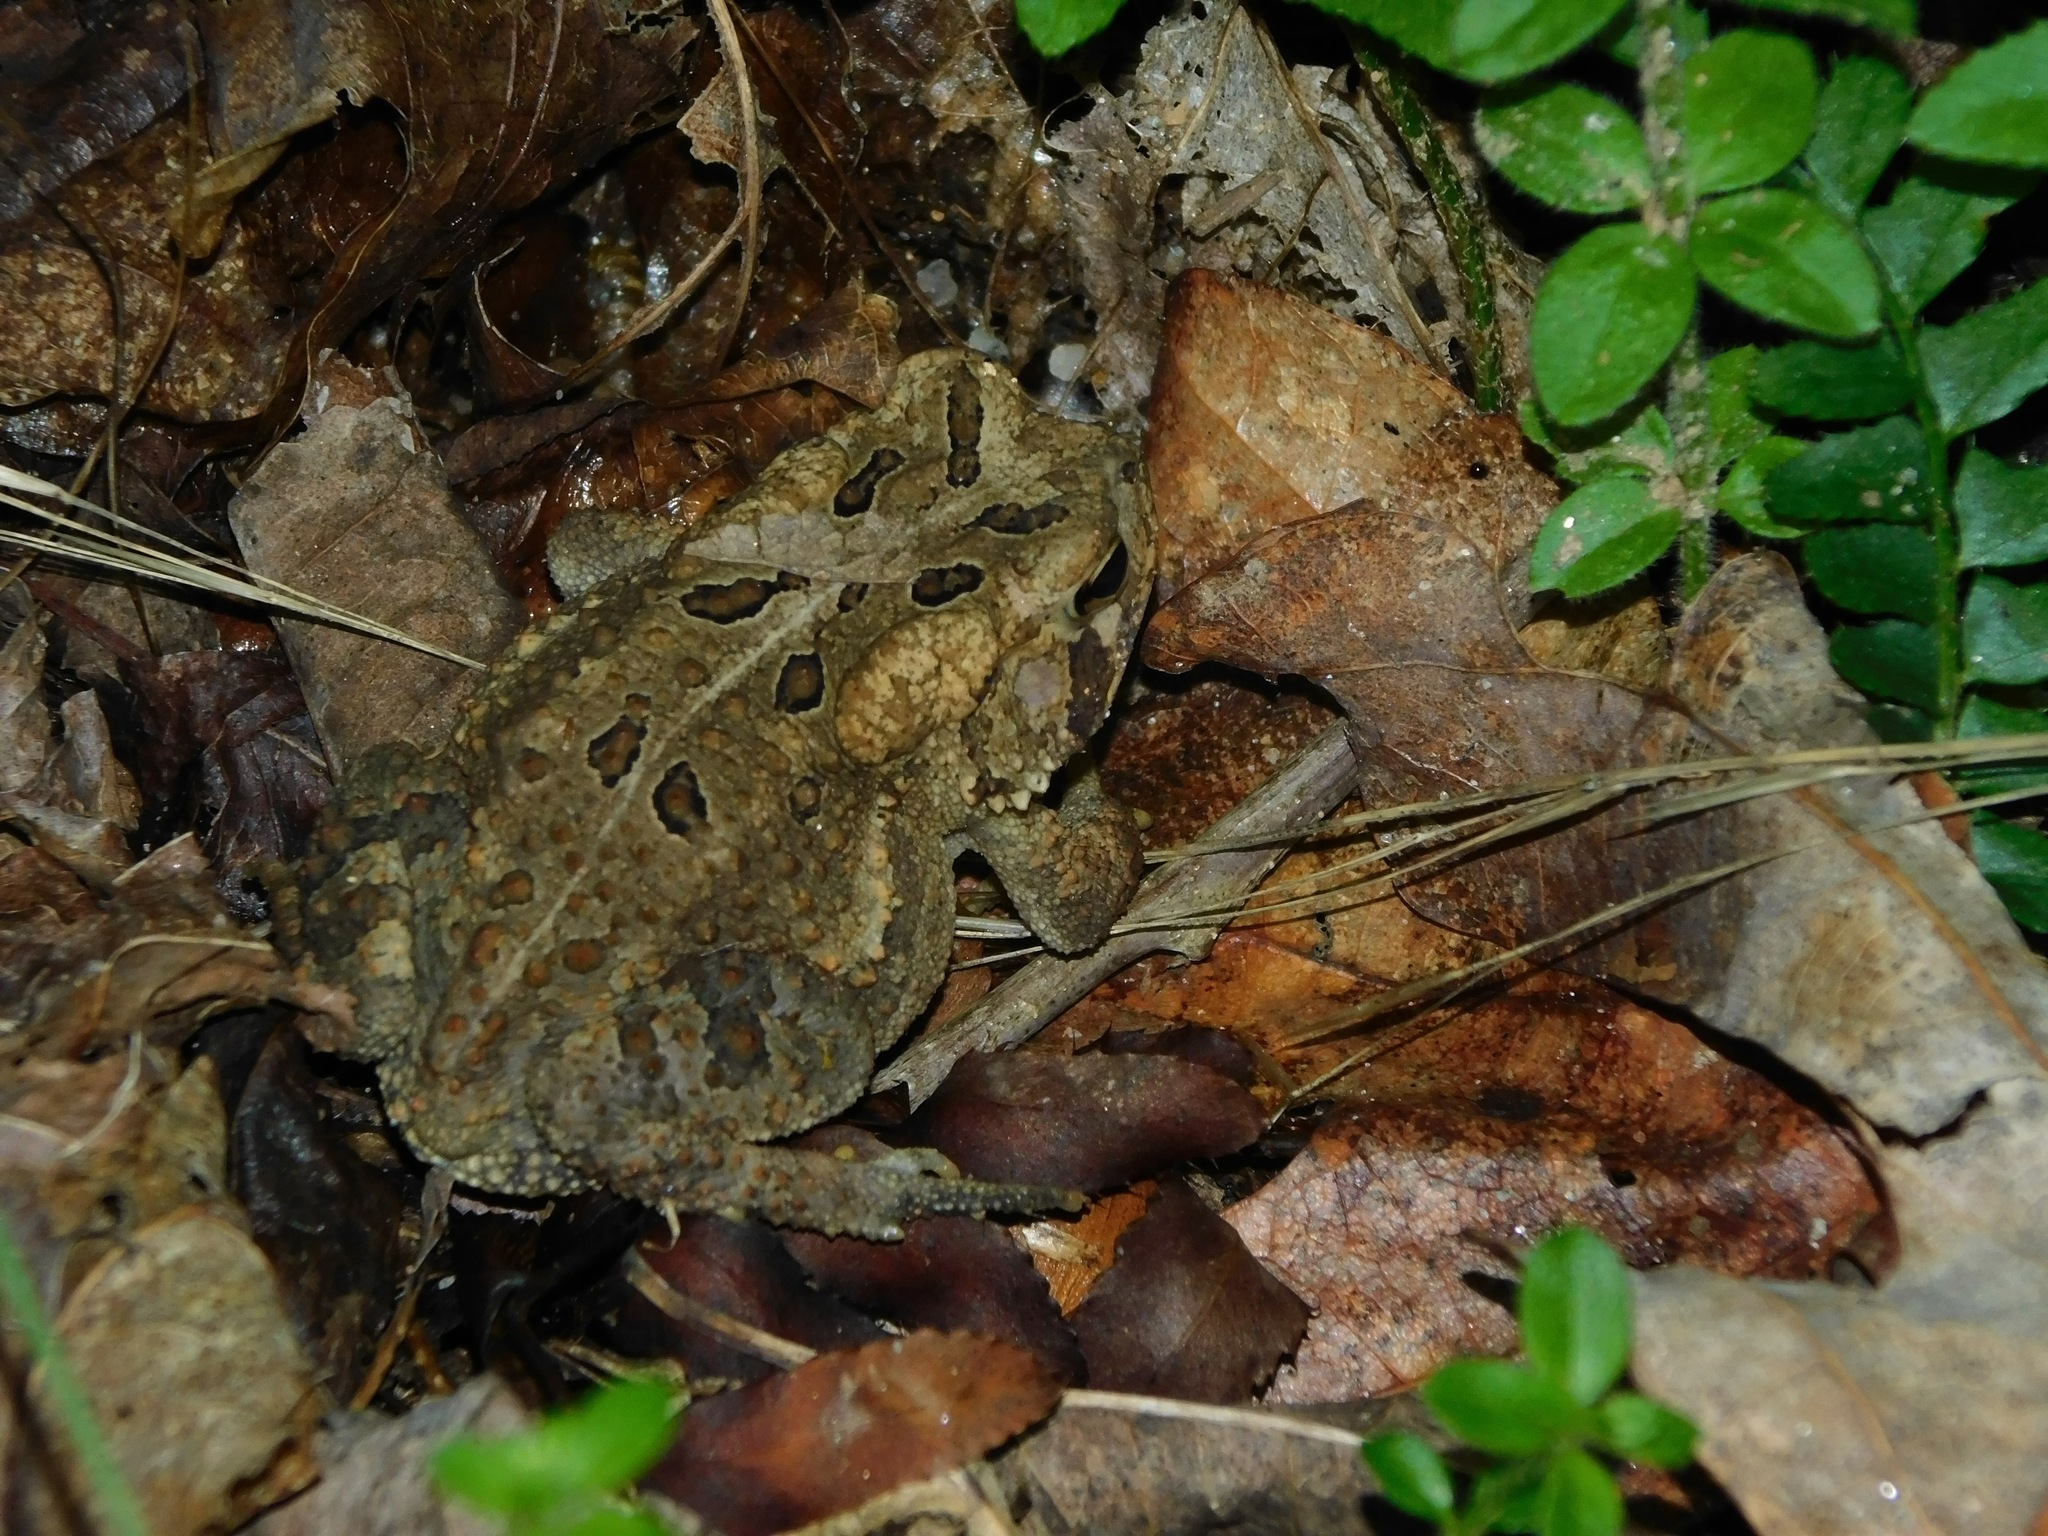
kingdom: Animalia
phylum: Chordata
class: Amphibia
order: Anura
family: Bufonidae
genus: Anaxyrus
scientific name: Anaxyrus fowleri
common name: Fowler's toad
